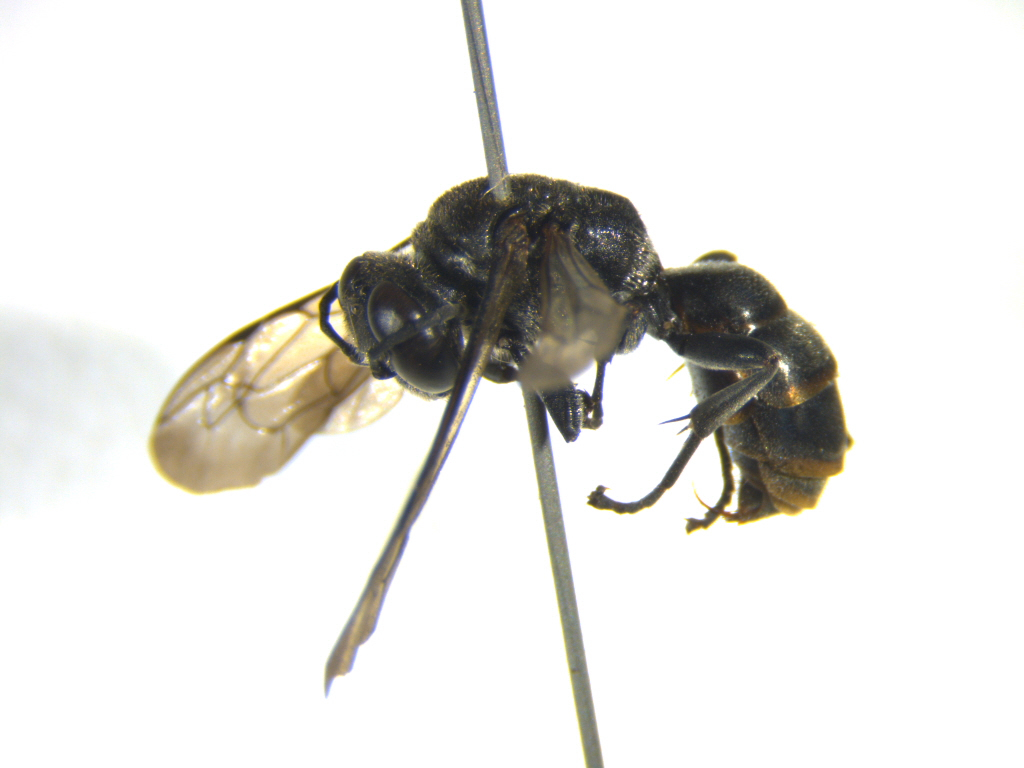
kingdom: Animalia
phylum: Arthropoda
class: Insecta
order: Hymenoptera
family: Crabronidae
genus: Pison
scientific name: Pison marginatum
